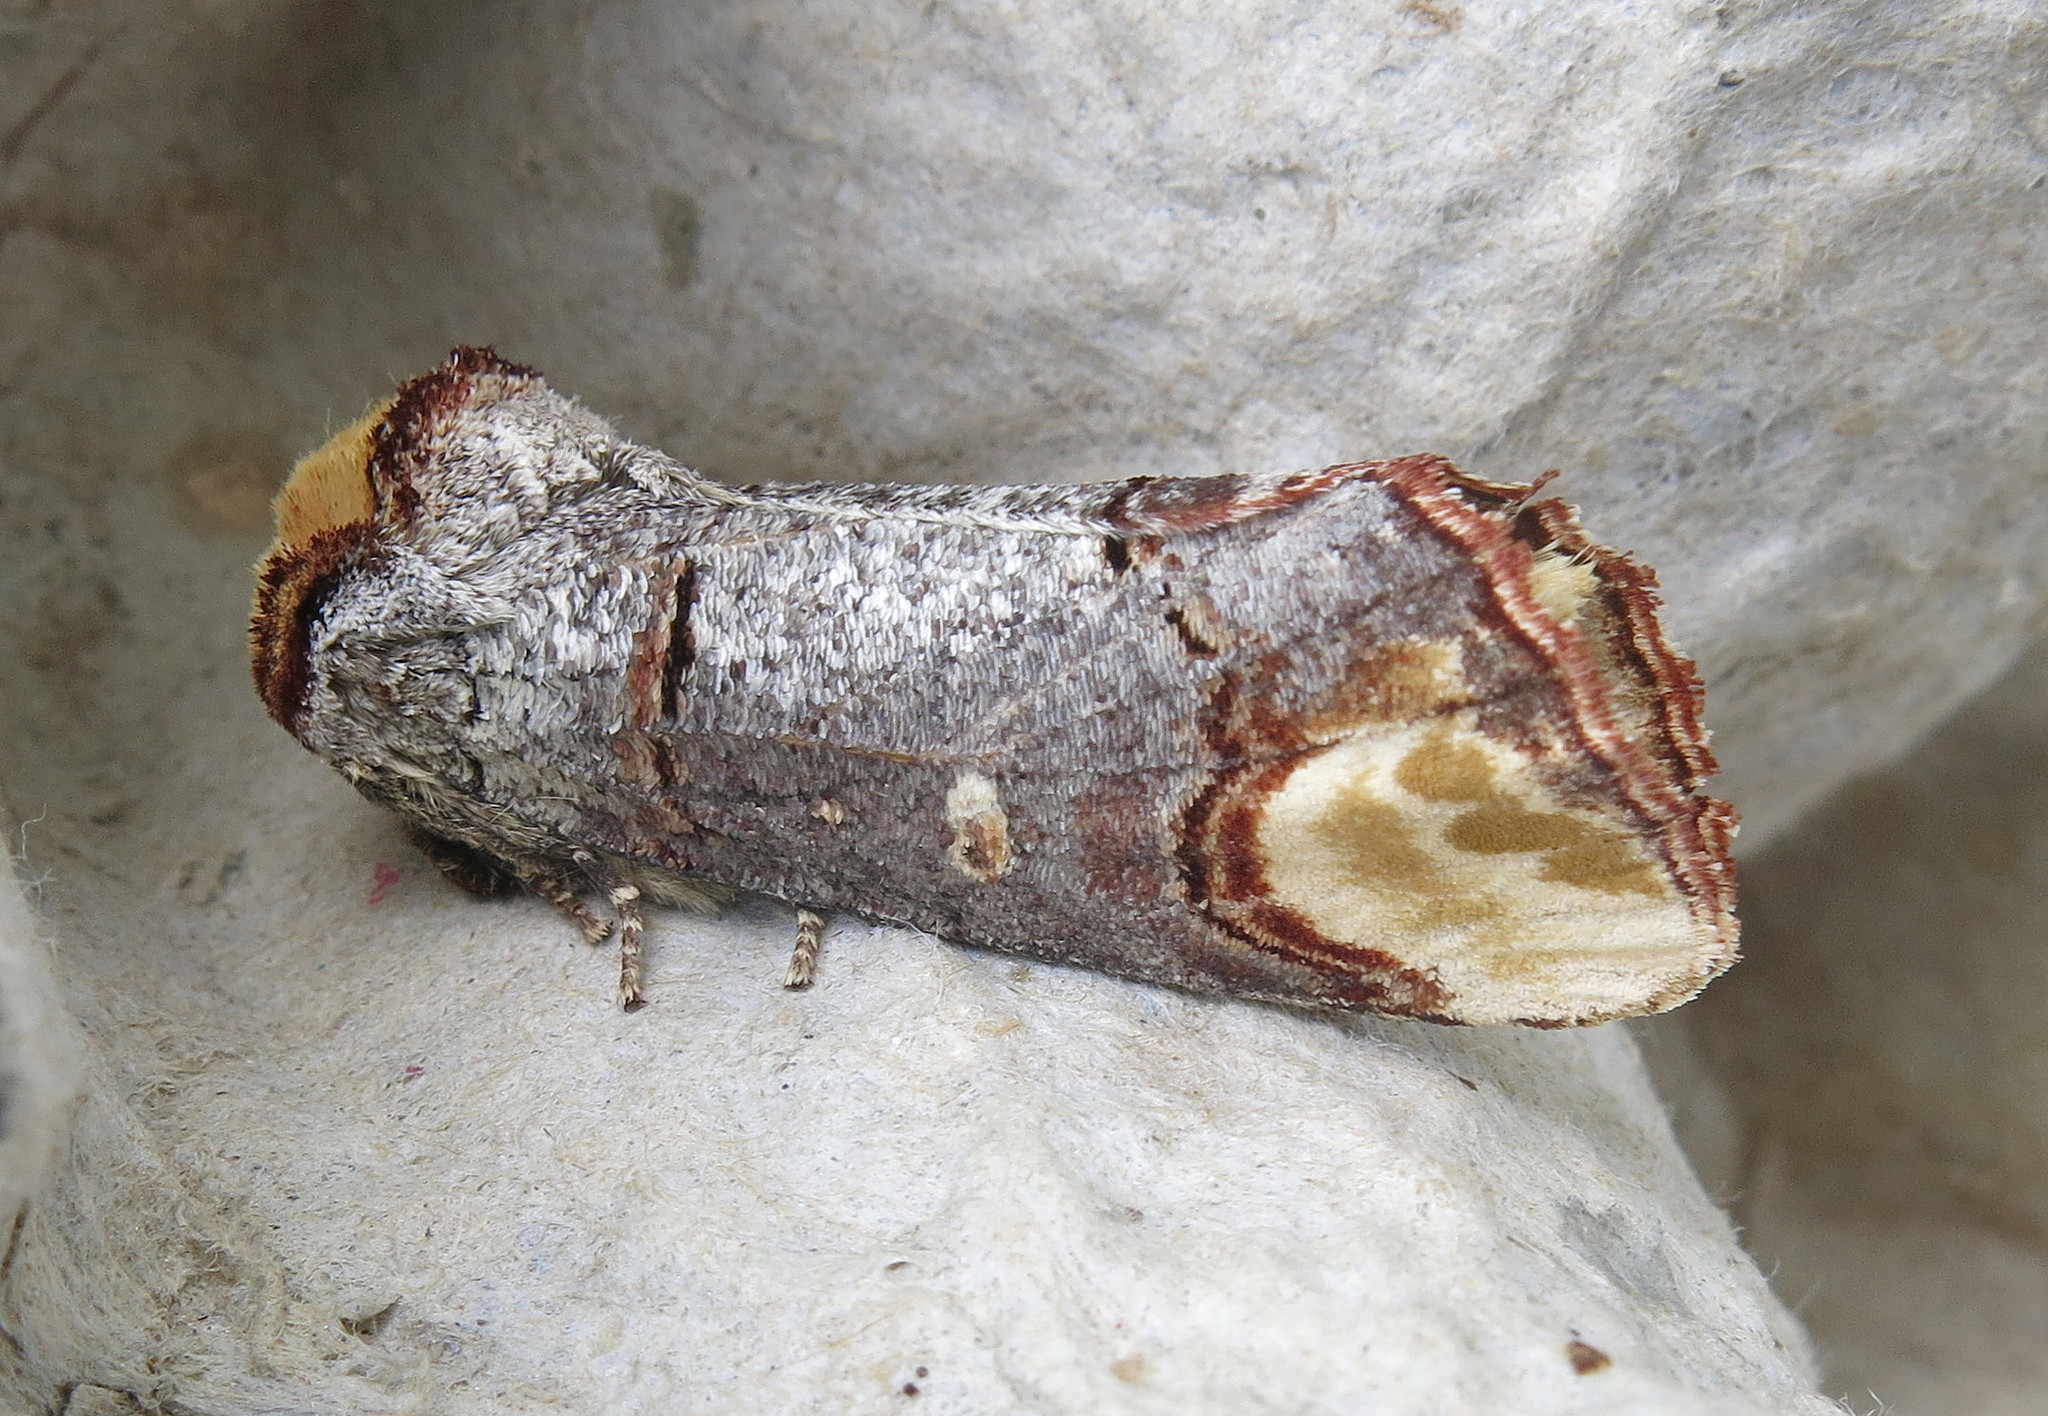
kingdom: Animalia
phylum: Arthropoda
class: Insecta
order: Lepidoptera
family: Notodontidae
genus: Phalera
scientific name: Phalera bucephala
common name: Buff-tip
